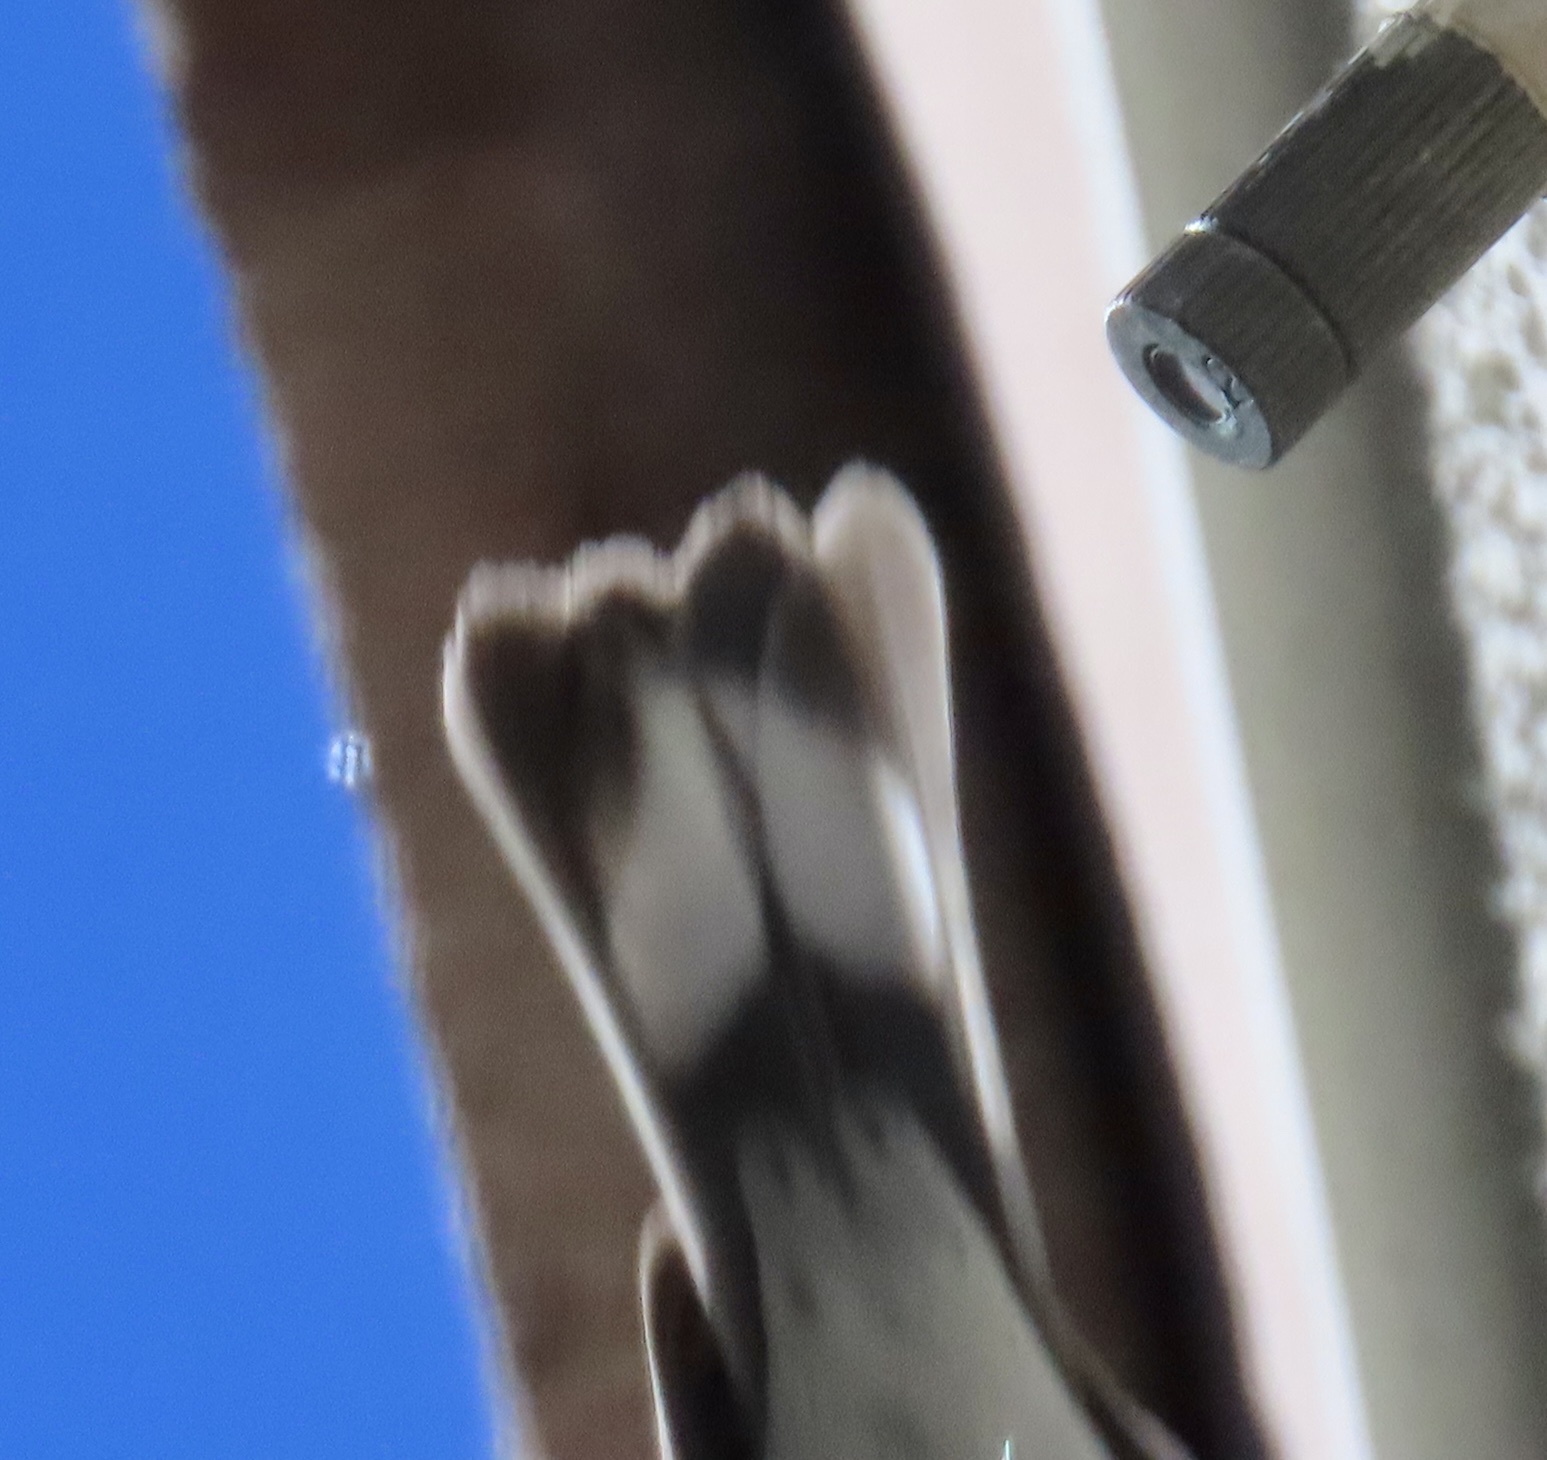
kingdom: Animalia
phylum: Chordata
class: Aves
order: Passeriformes
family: Parulidae
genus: Setophaga
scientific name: Setophaga coronata
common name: Myrtle warbler
